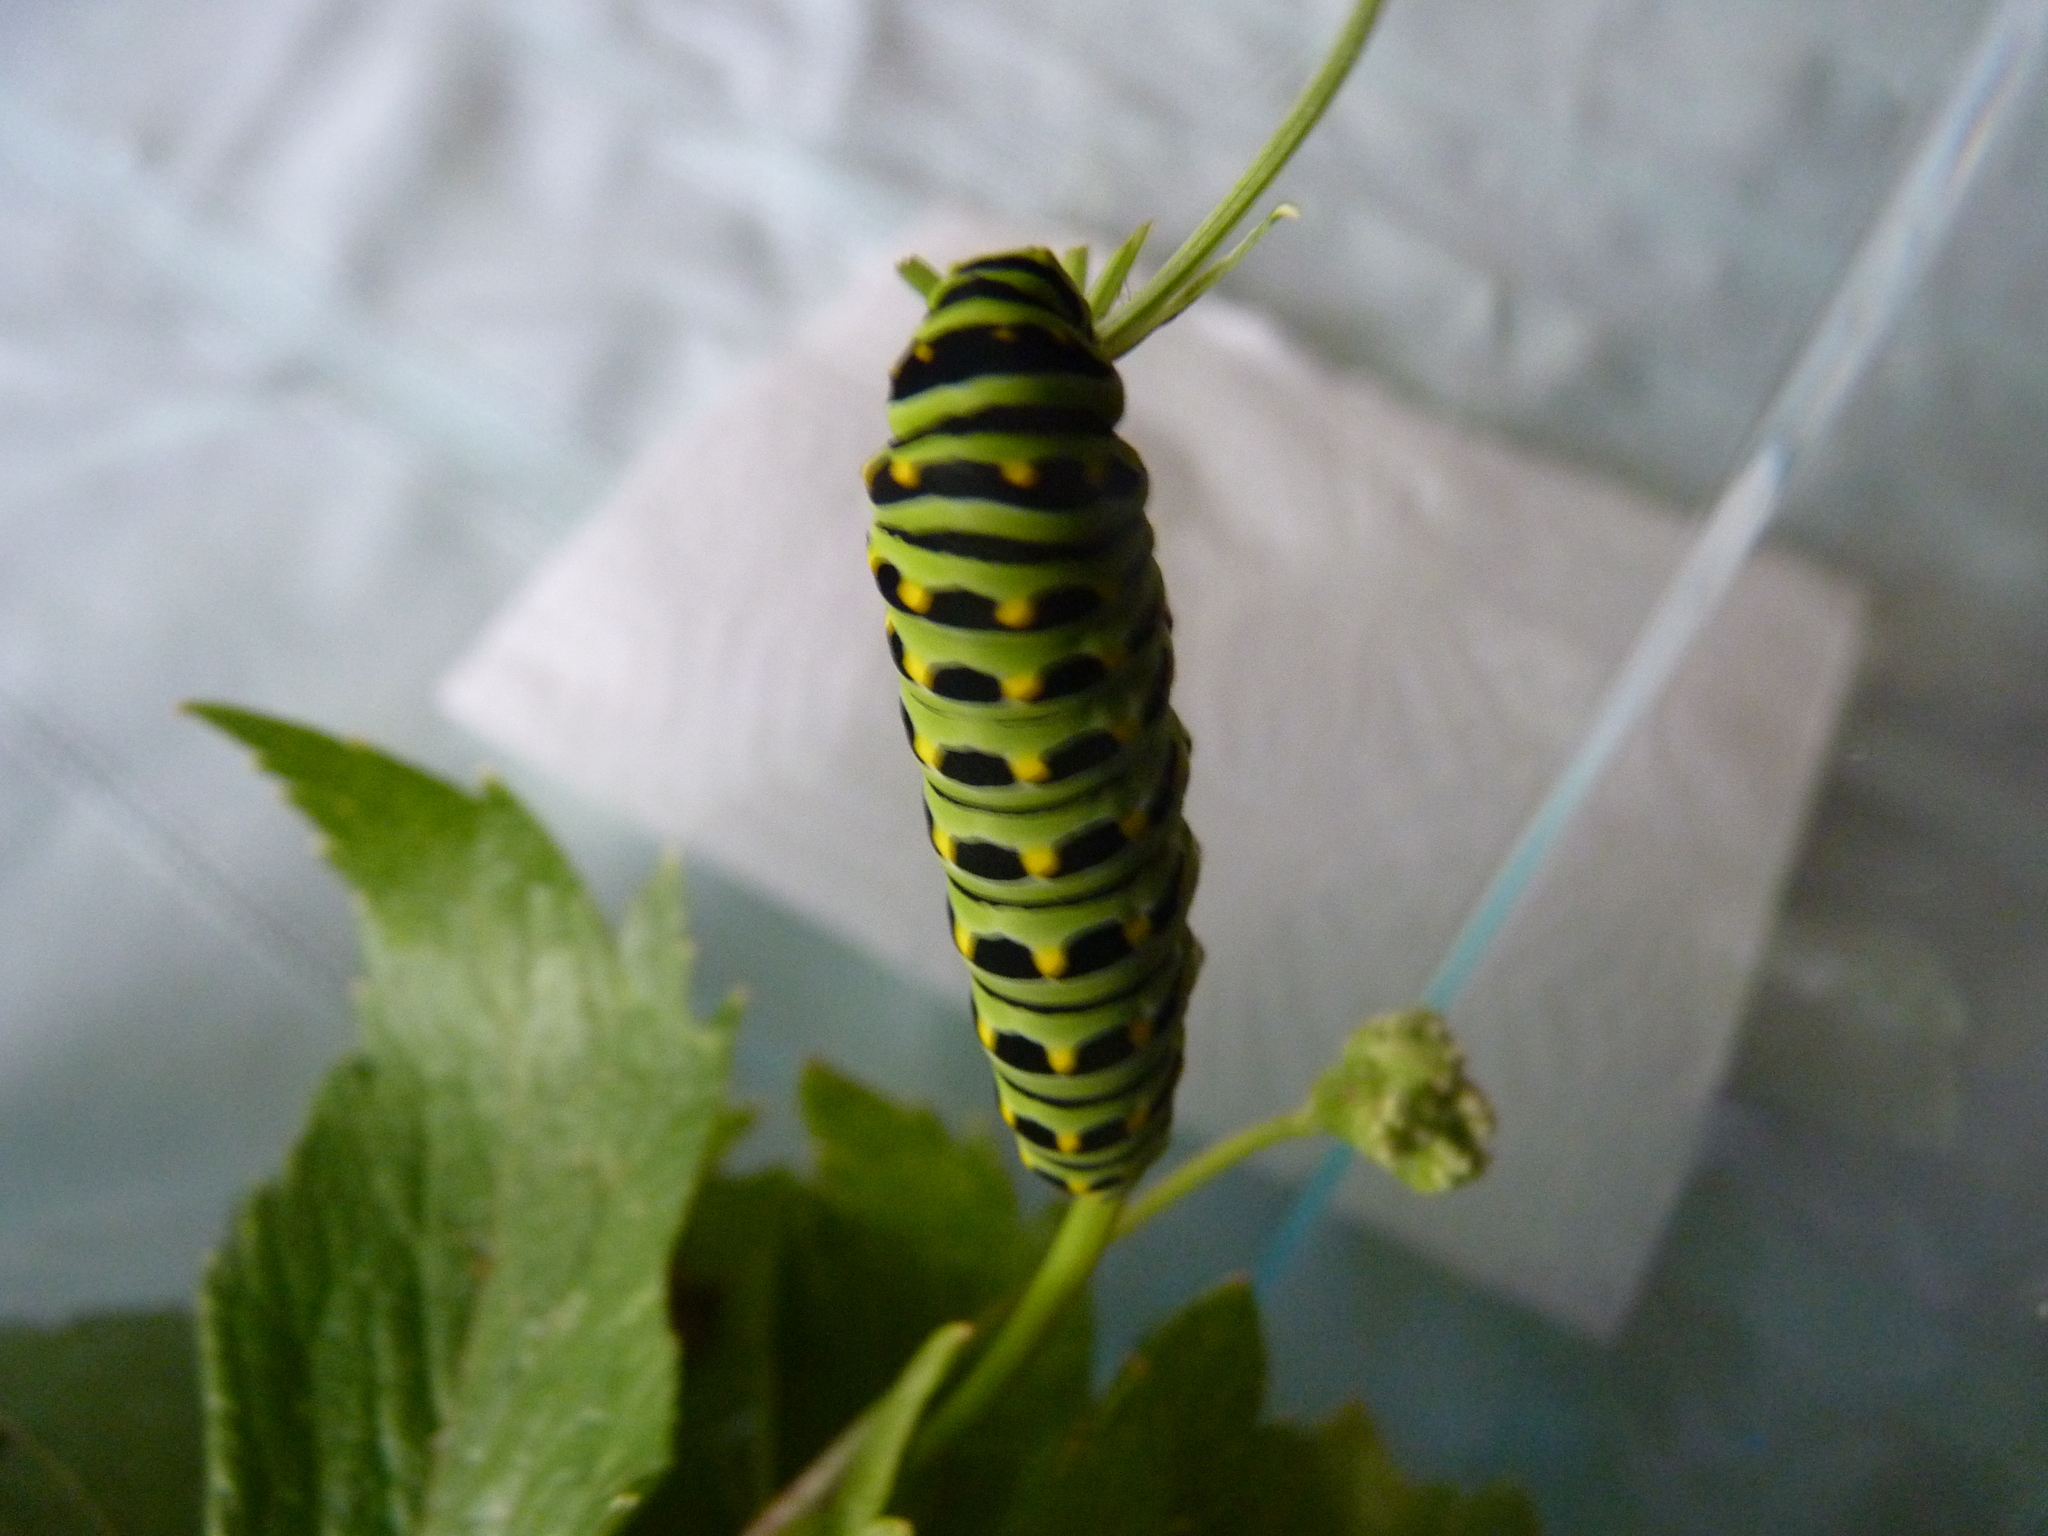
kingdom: Animalia
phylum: Arthropoda
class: Insecta
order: Lepidoptera
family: Papilionidae
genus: Papilio
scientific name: Papilio brevicauda
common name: Short tailed swallowtail
